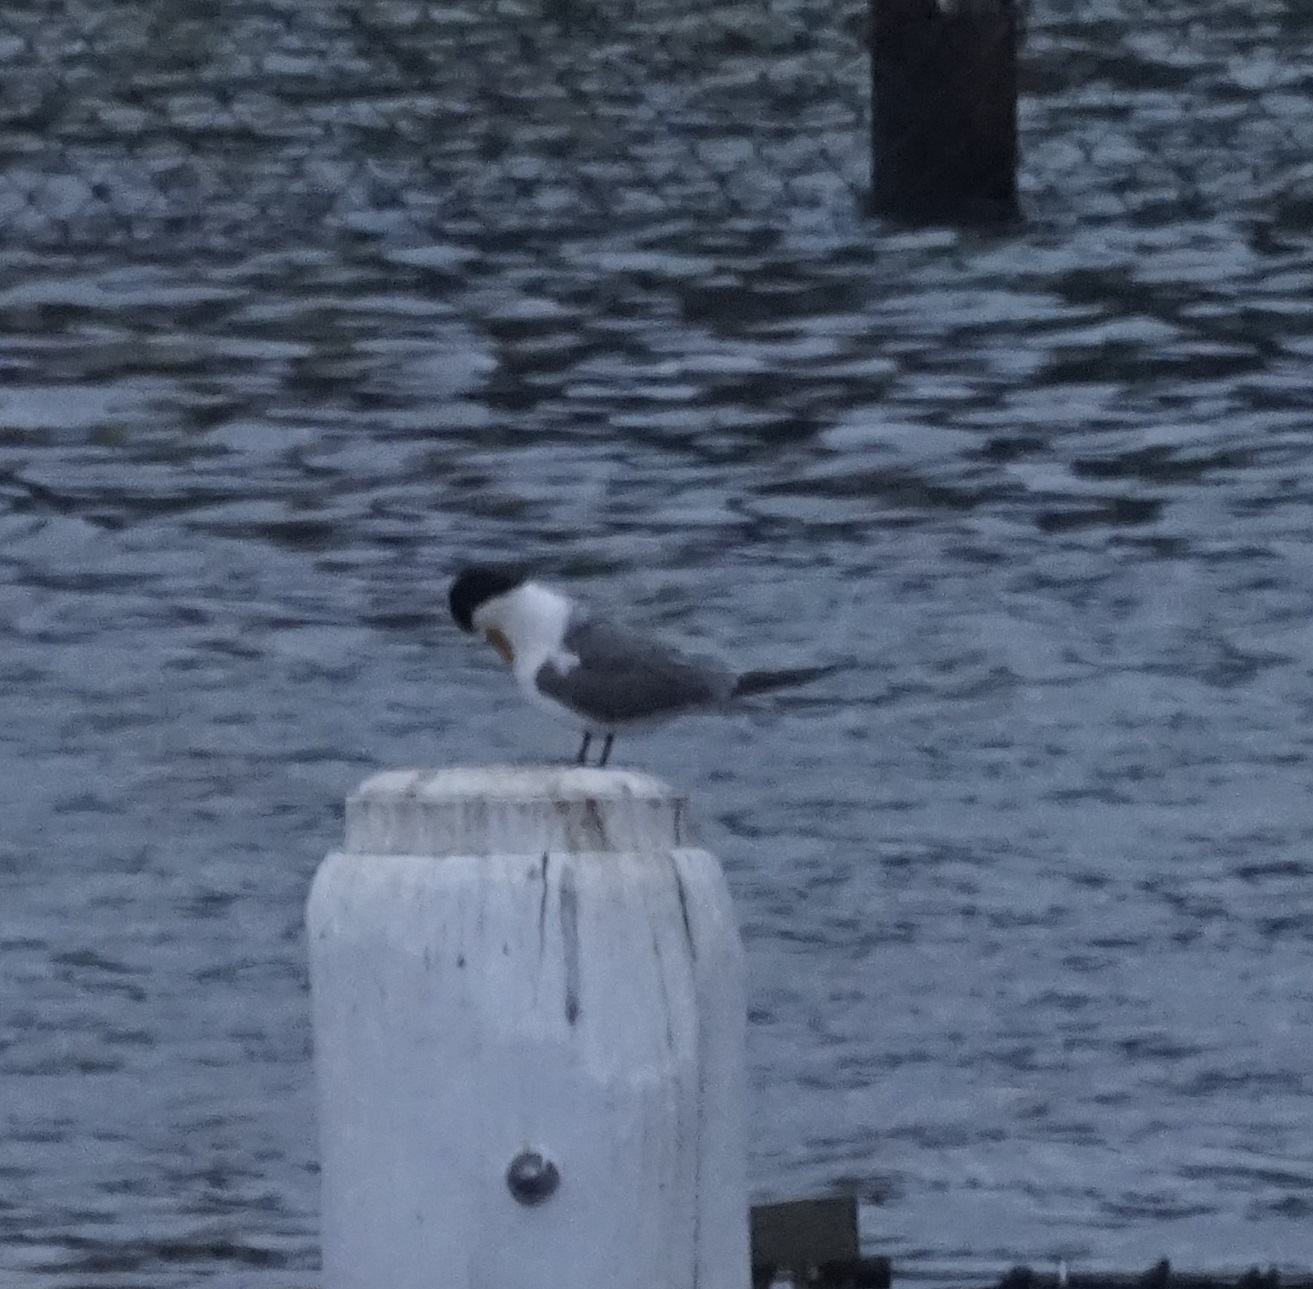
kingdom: Animalia
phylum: Chordata
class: Aves
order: Charadriiformes
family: Laridae
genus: Thalasseus
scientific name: Thalasseus bergii
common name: Greater crested tern
